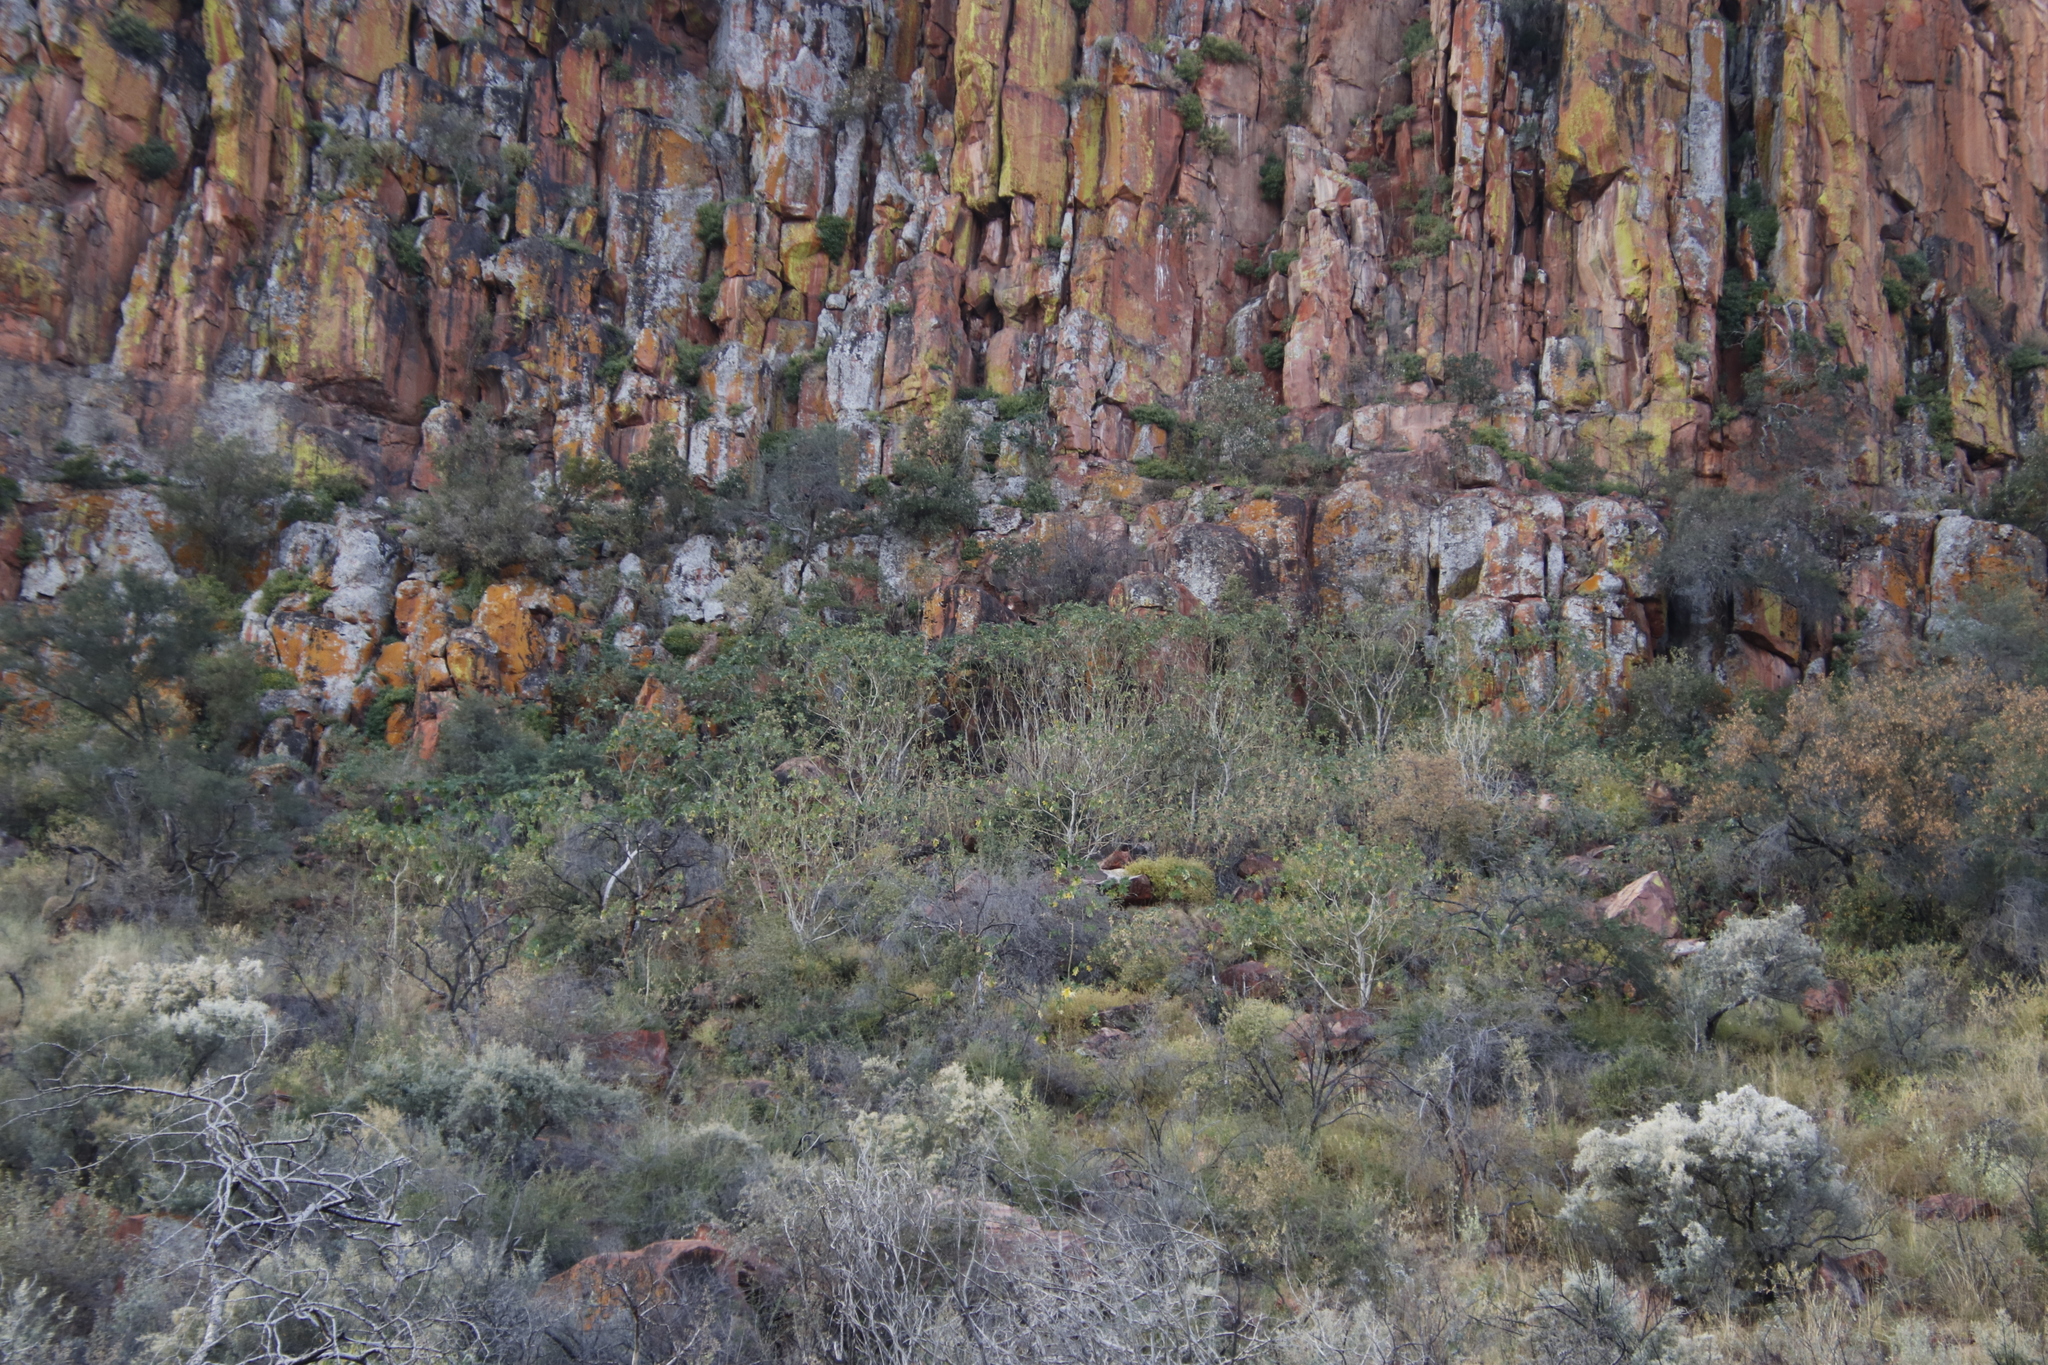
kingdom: Plantae
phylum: Tracheophyta
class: Magnoliopsida
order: Malpighiales
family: Euphorbiaceae
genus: Ricinus
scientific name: Ricinus communis
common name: Castor-oil-plant
